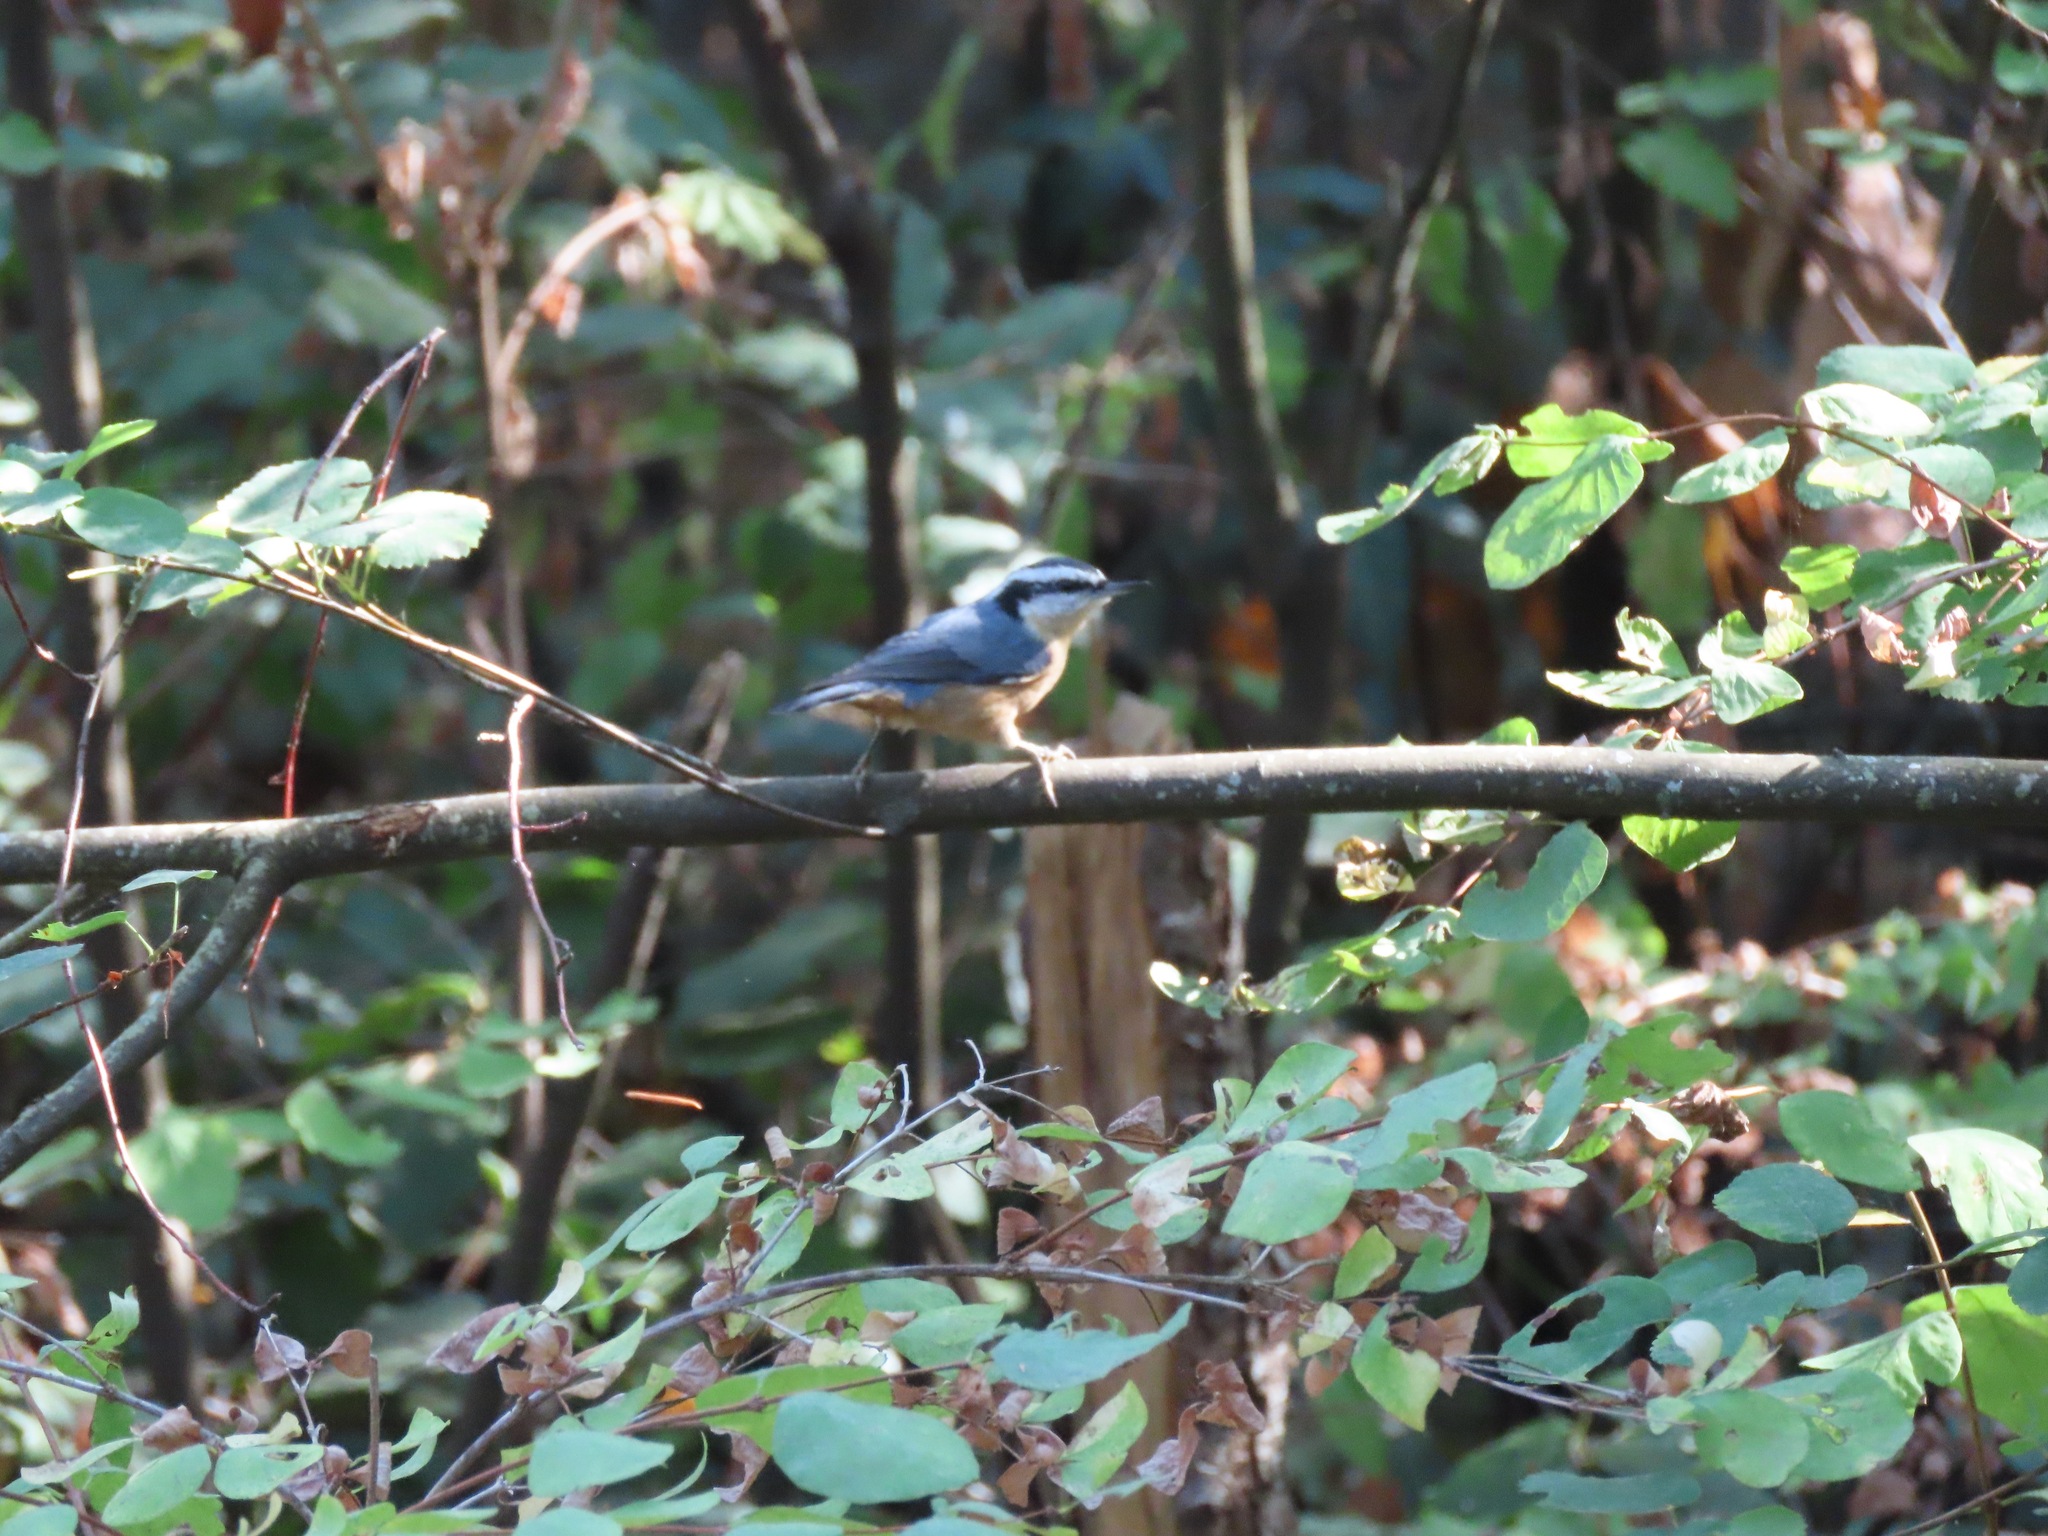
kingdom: Animalia
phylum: Chordata
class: Aves
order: Passeriformes
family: Sittidae
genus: Sitta
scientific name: Sitta canadensis
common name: Red-breasted nuthatch
